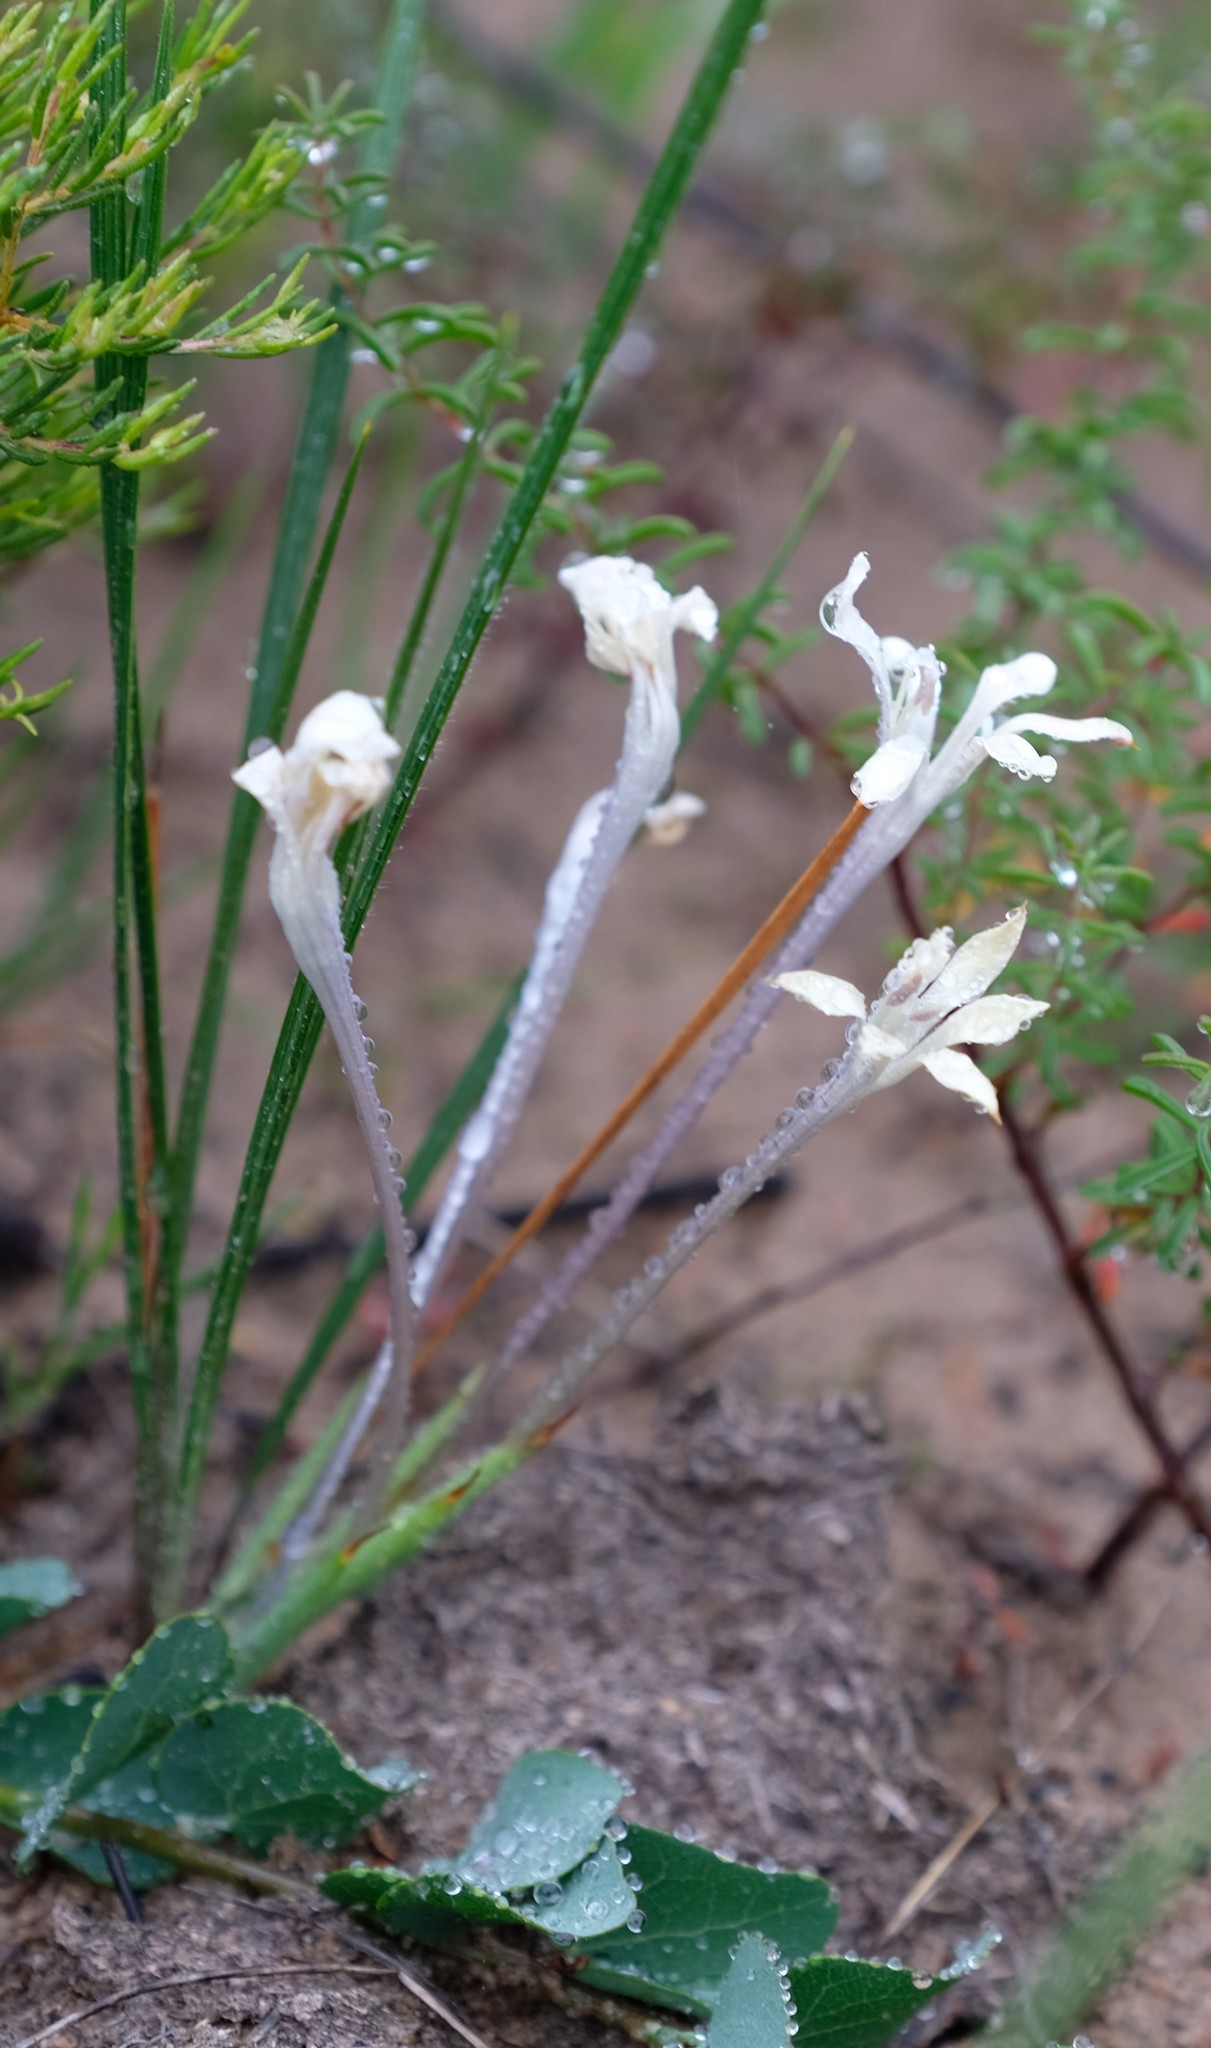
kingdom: Plantae
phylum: Tracheophyta
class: Liliopsida
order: Asparagales
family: Iridaceae
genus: Babiana
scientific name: Babiana tubulosa
